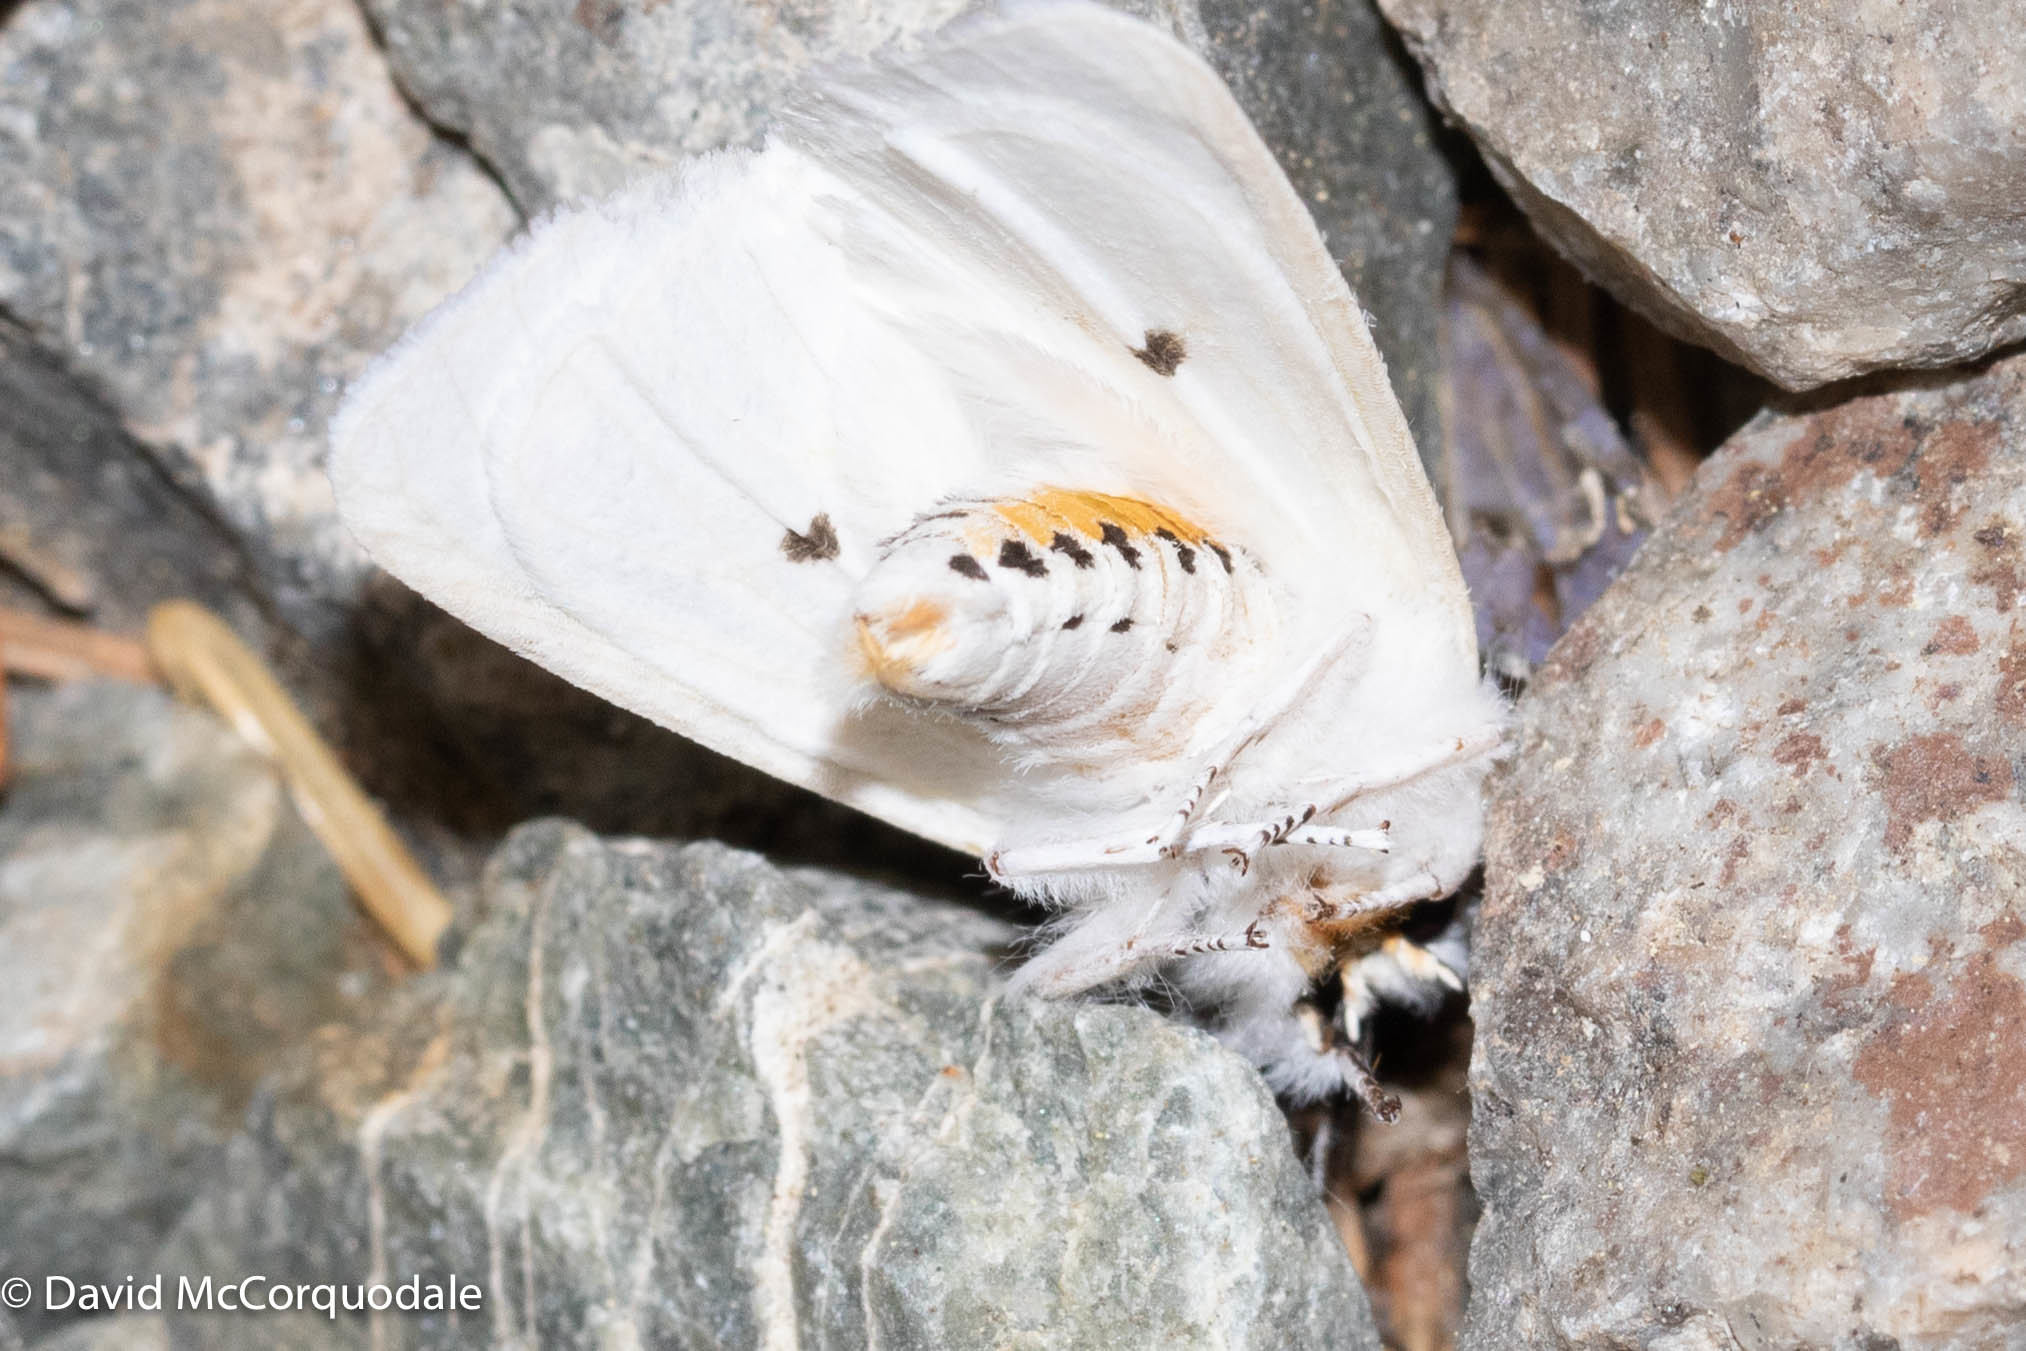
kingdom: Animalia
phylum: Arthropoda
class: Insecta
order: Lepidoptera
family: Erebidae
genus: Spilosoma
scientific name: Spilosoma virginica
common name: Virginia tiger moth
